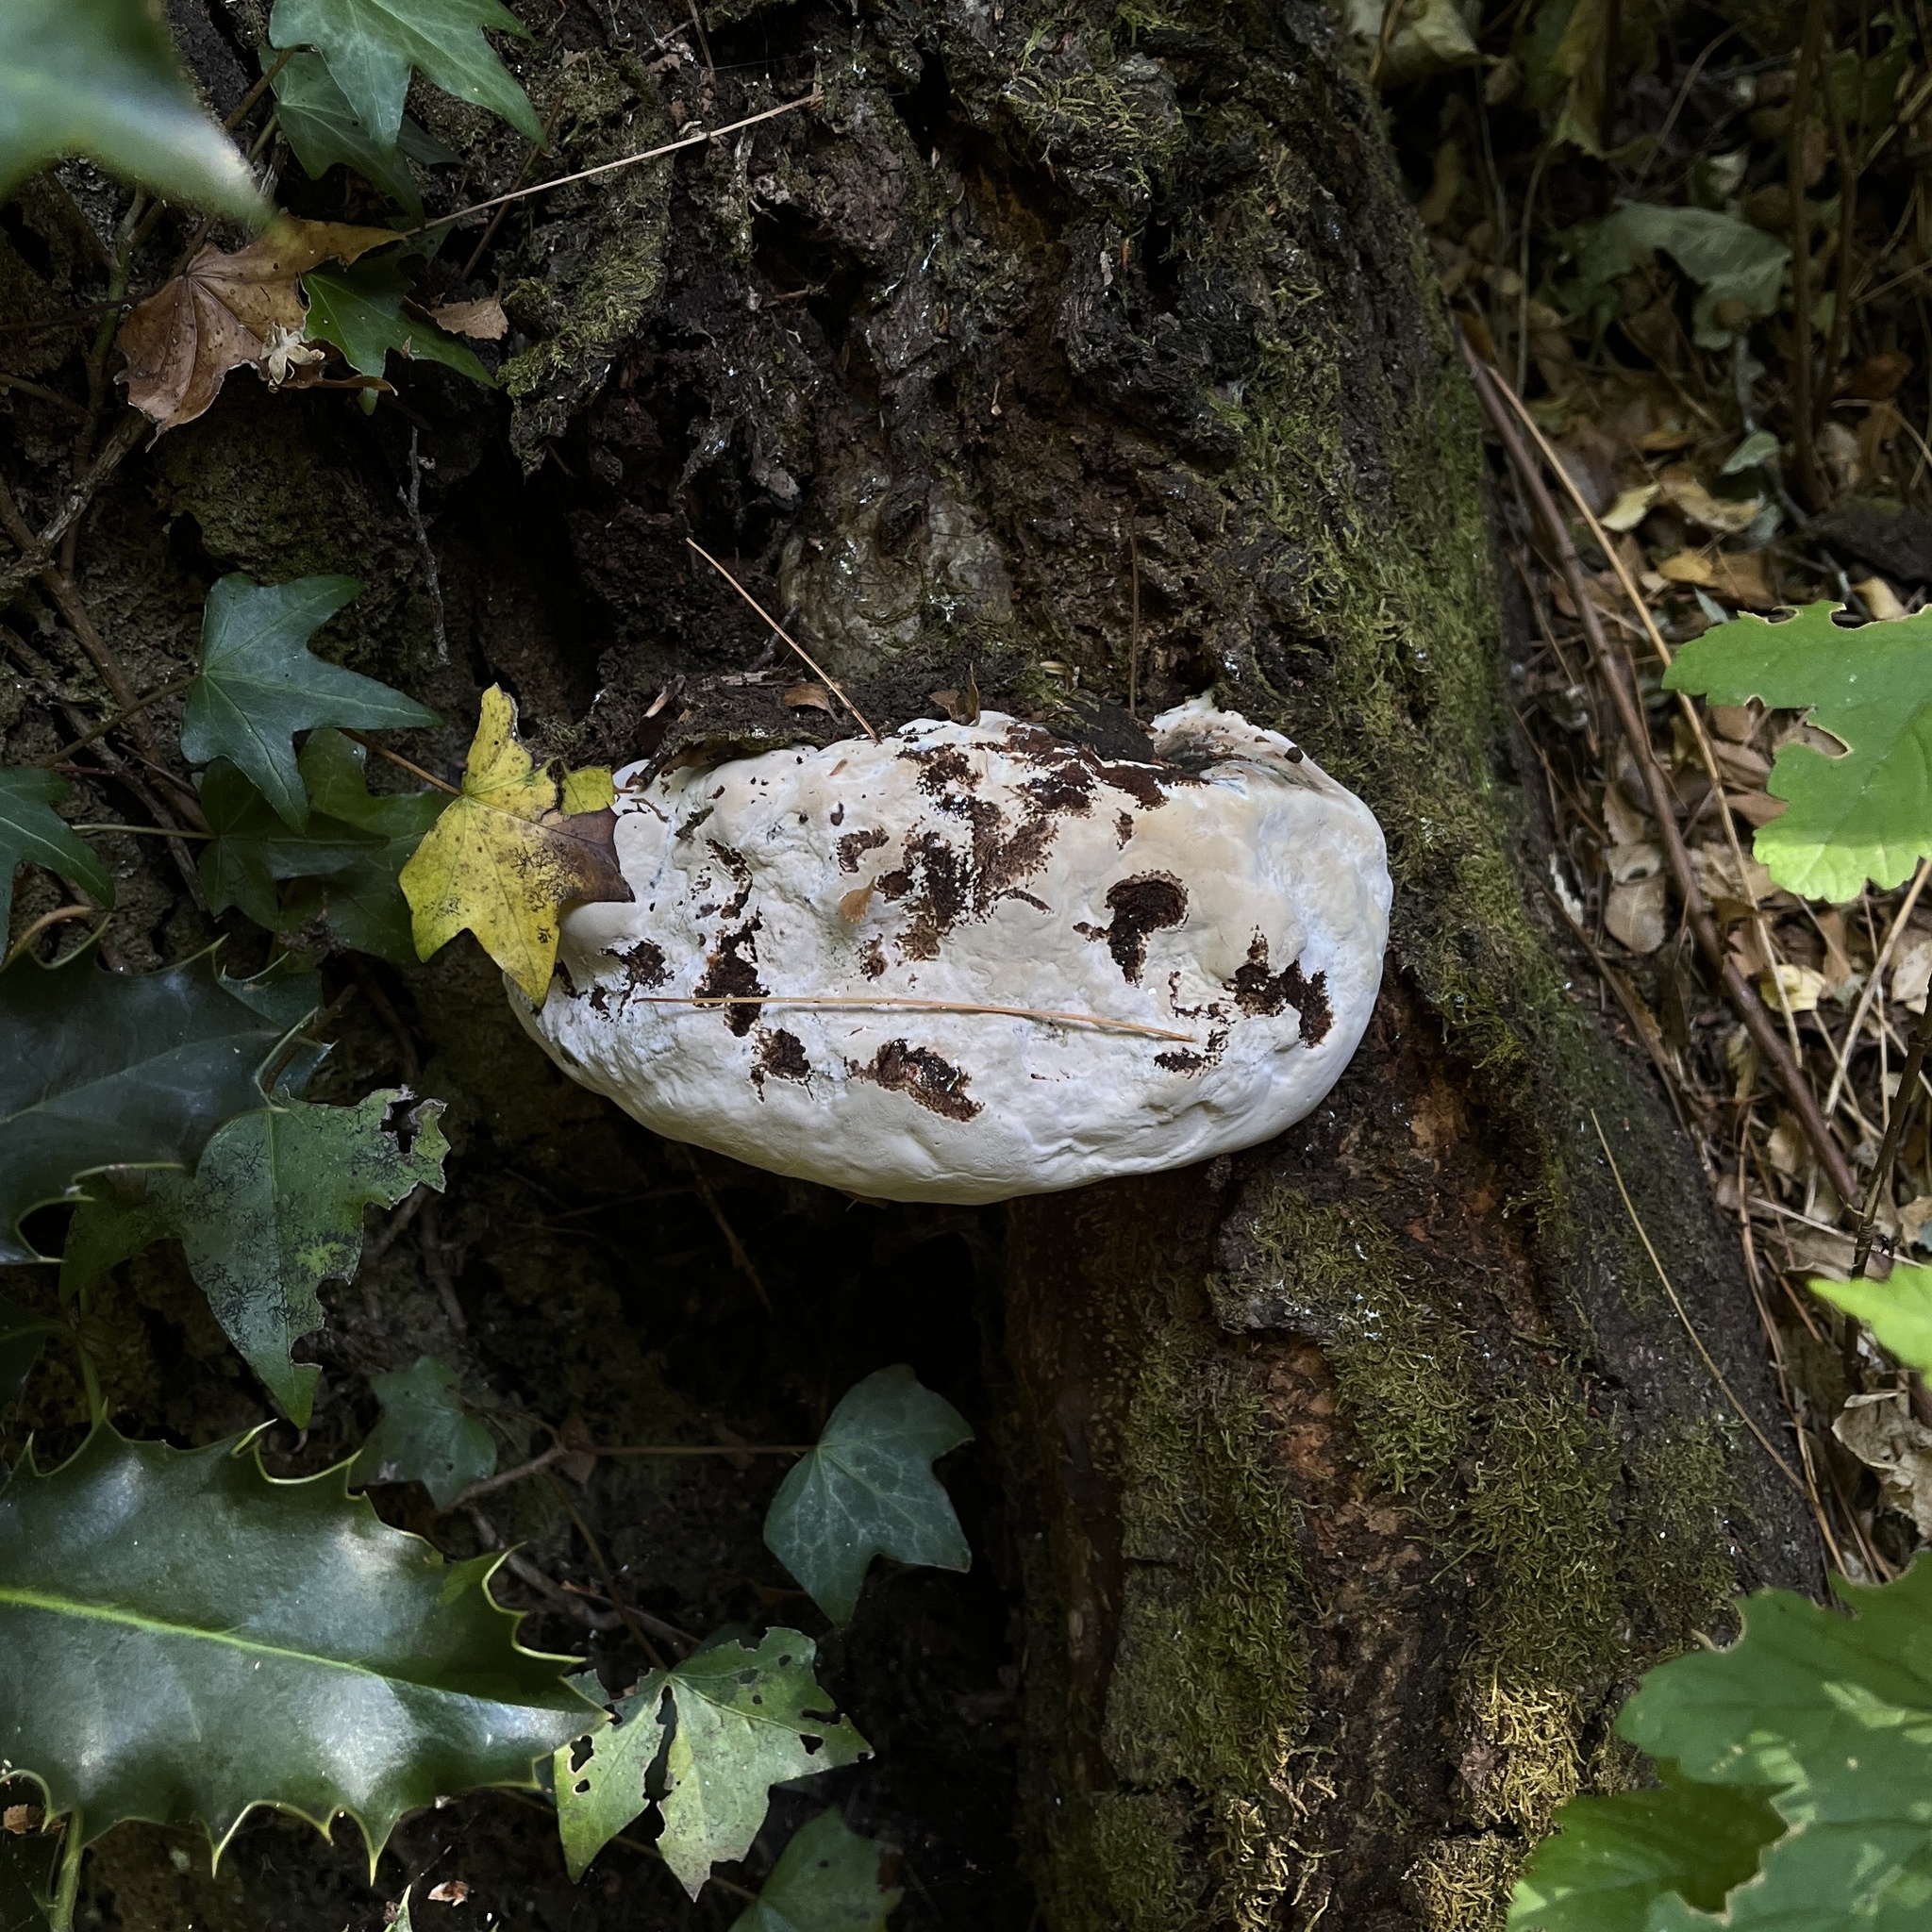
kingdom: Fungi
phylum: Basidiomycota
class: Agaricomycetes
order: Polyporales
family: Polyporaceae
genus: Ganoderma
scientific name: Ganoderma australe
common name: Southern bracket
